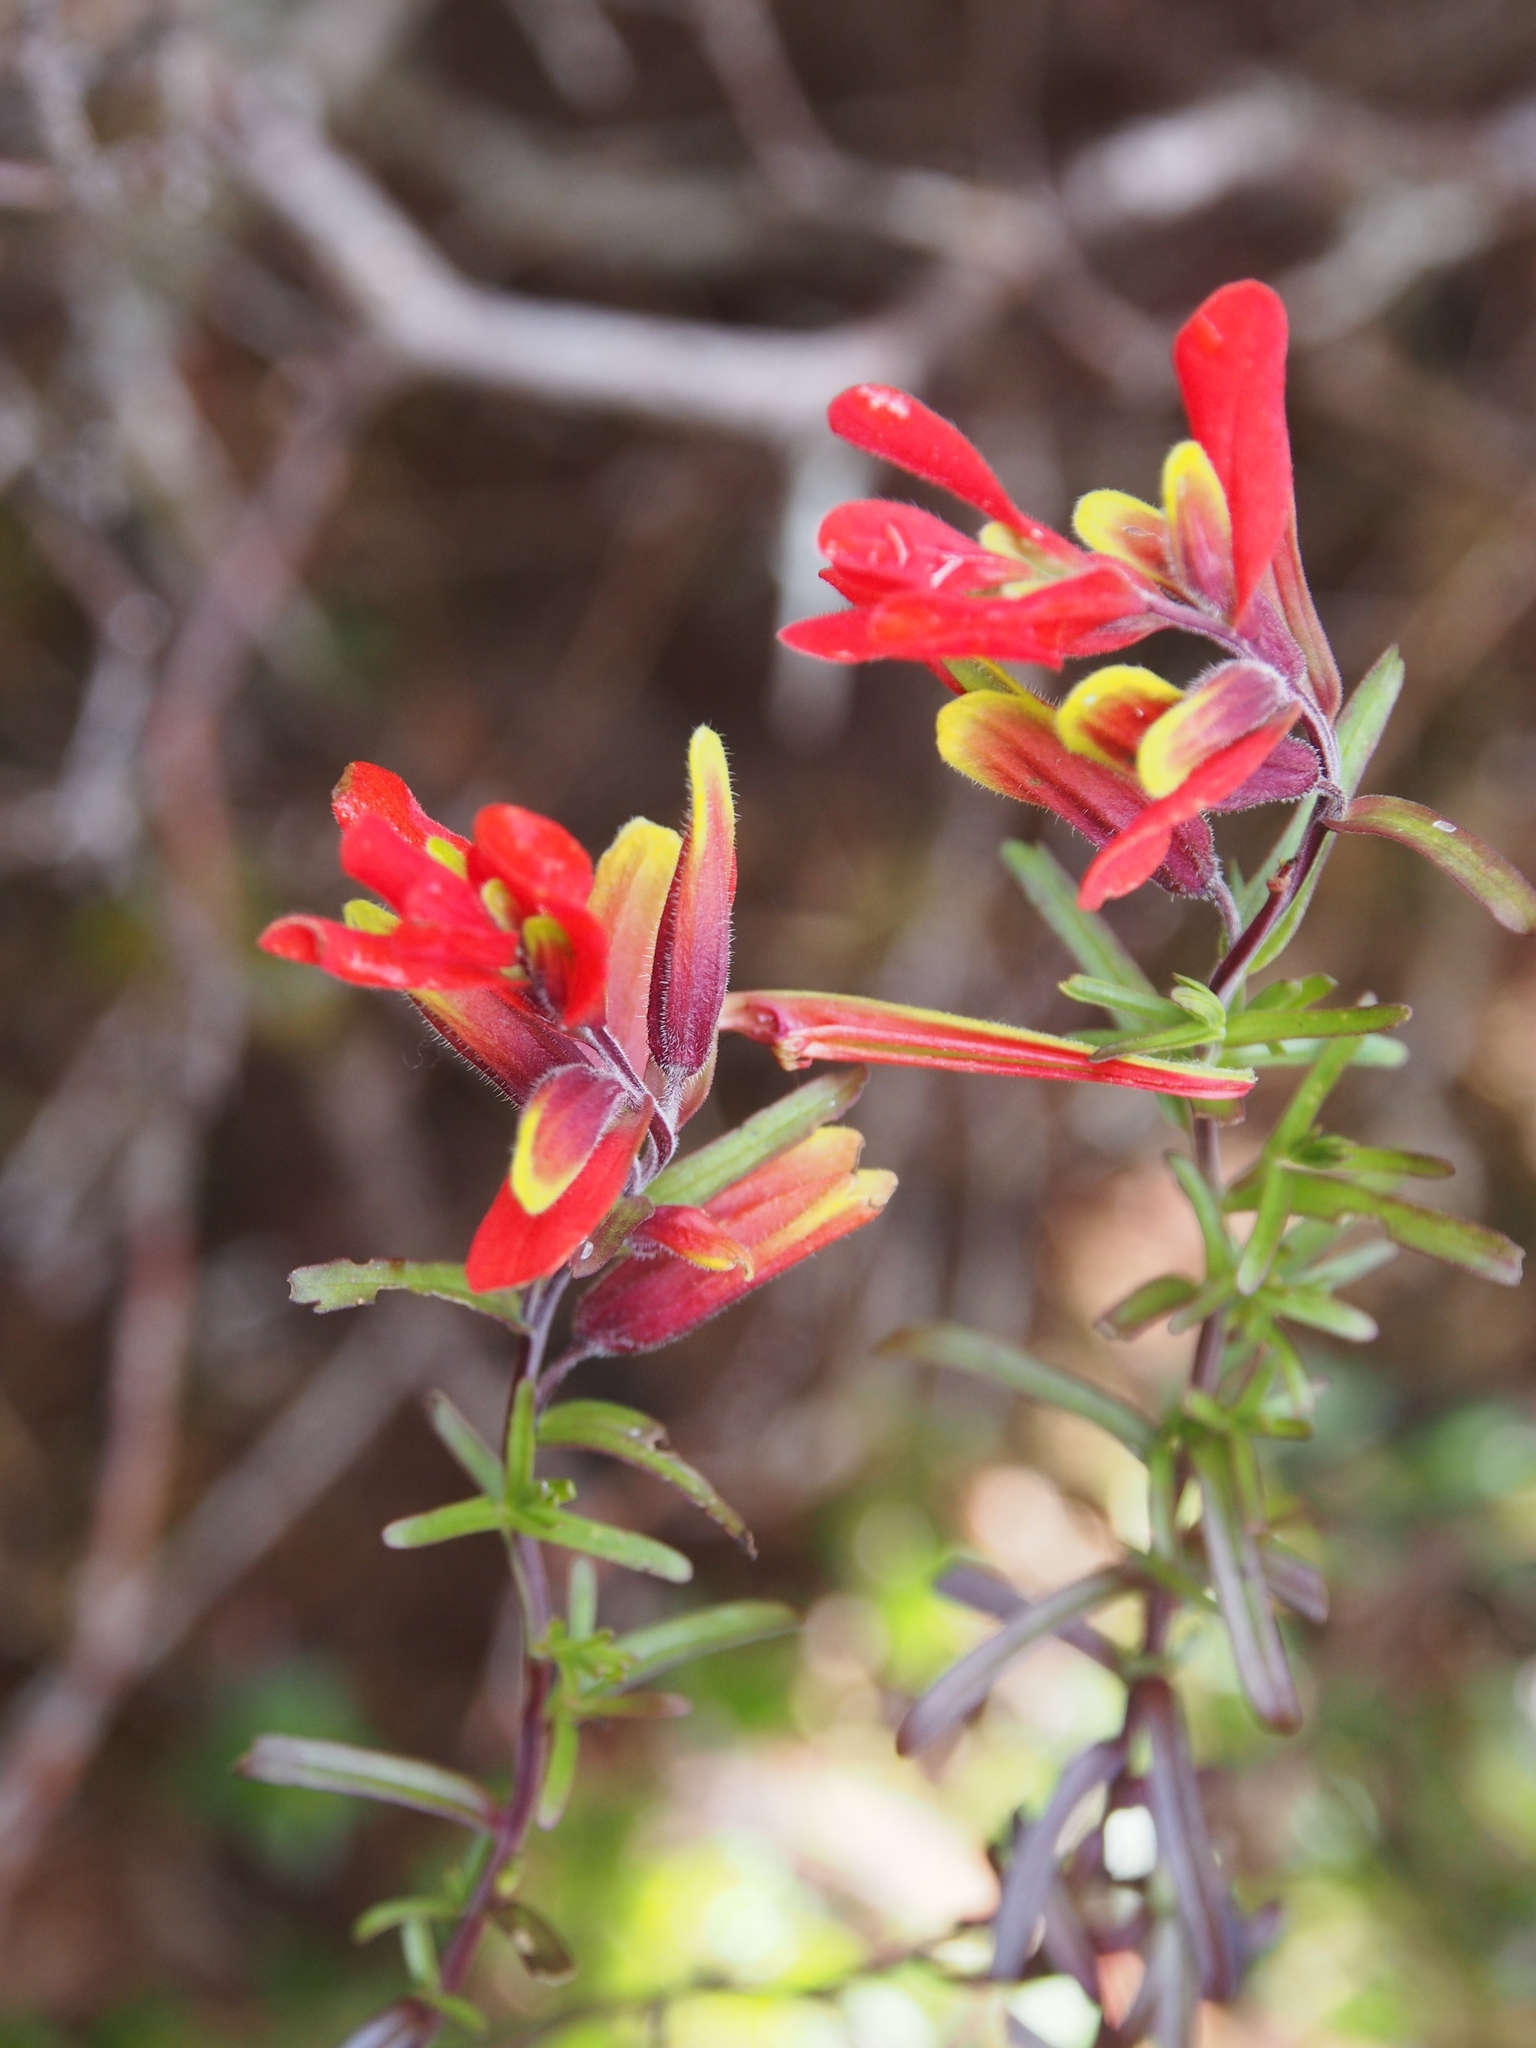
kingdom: Plantae
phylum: Tracheophyta
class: Magnoliopsida
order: Lamiales
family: Orobanchaceae
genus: Castilleja
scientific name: Castilleja talamancensis
